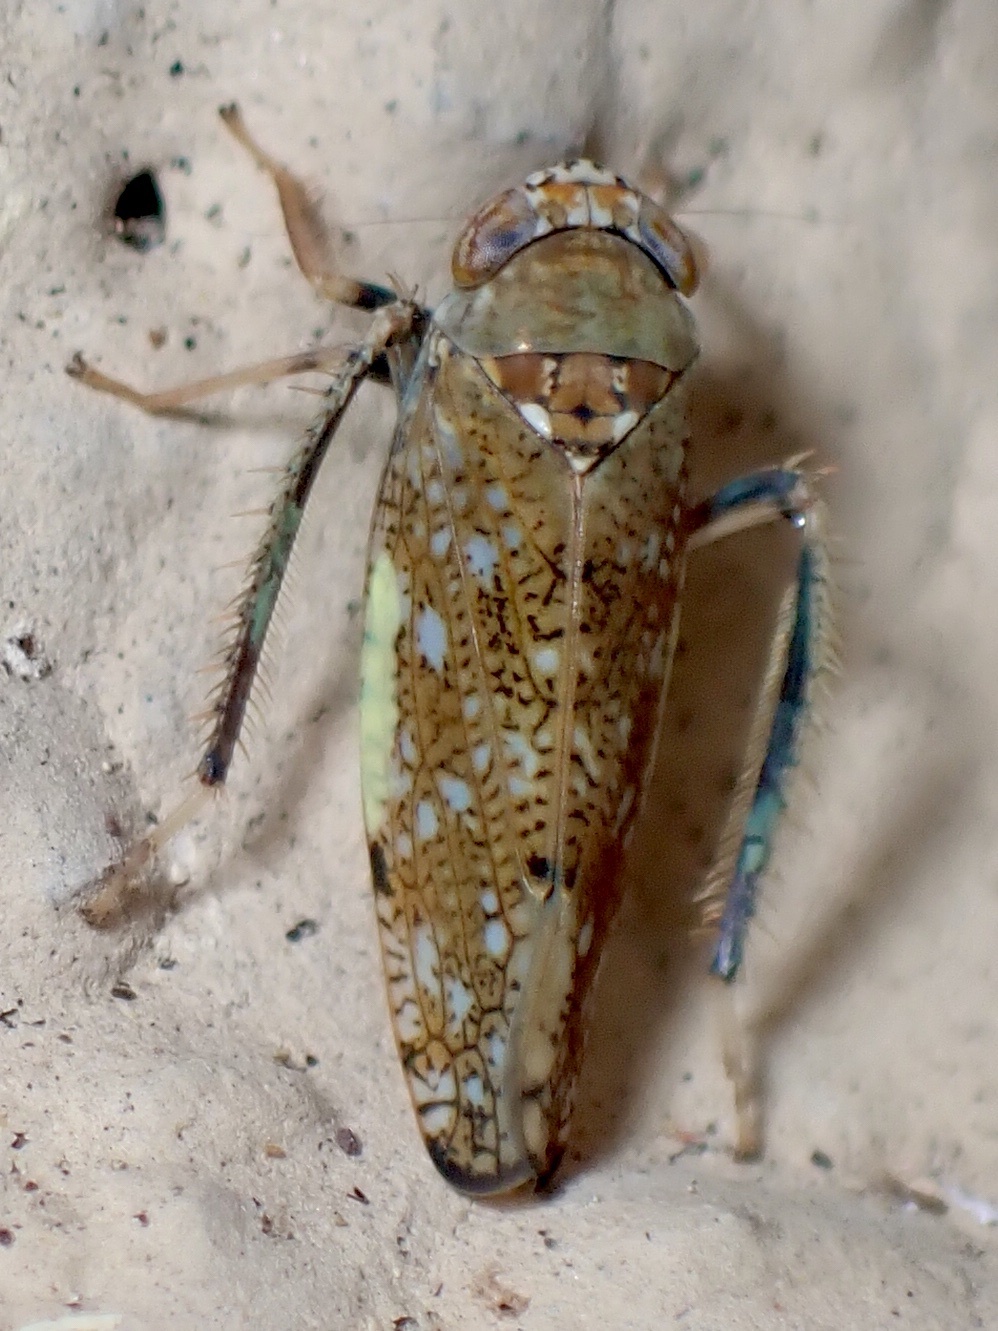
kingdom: Animalia
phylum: Arthropoda
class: Insecta
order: Hemiptera
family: Cicadellidae
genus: Orientus
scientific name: Orientus ishidae
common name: Japanese leafhopper
